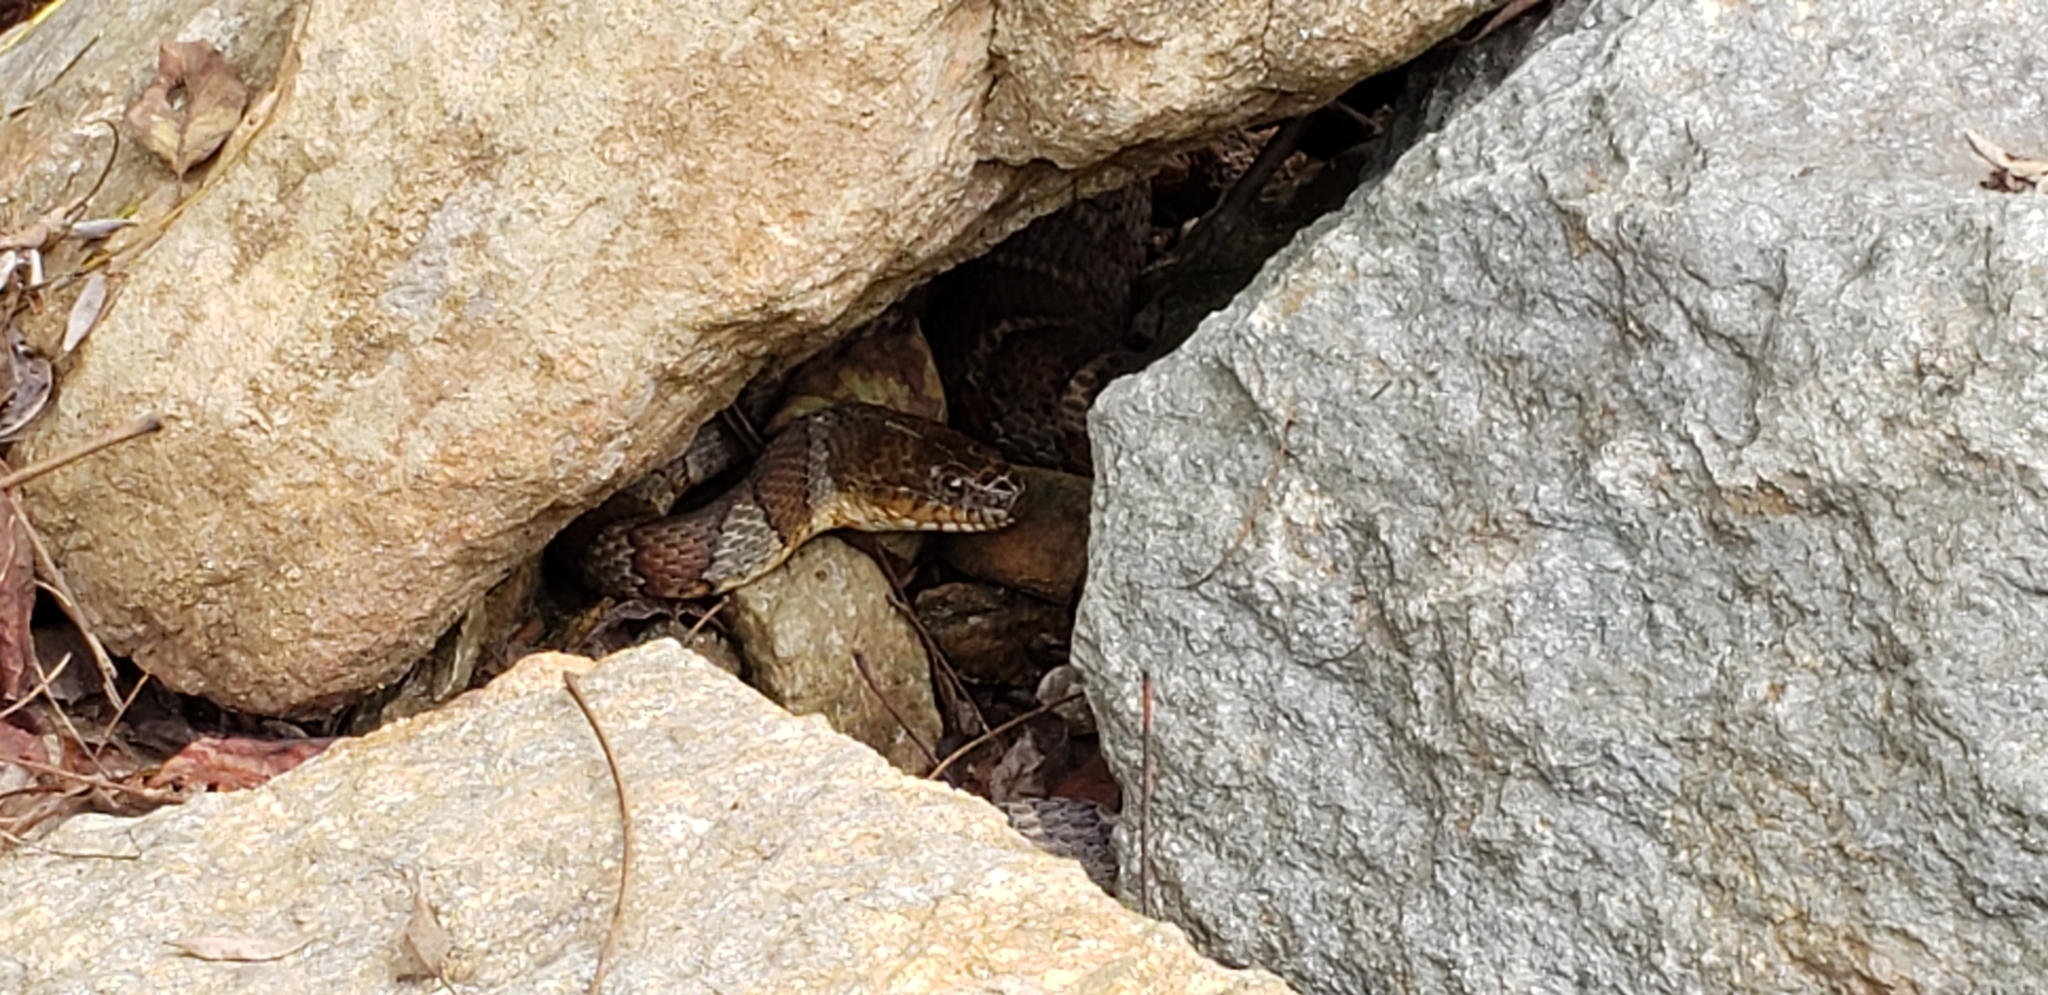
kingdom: Animalia
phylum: Chordata
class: Squamata
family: Colubridae
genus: Nerodia
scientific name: Nerodia sipedon
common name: Northern water snake
